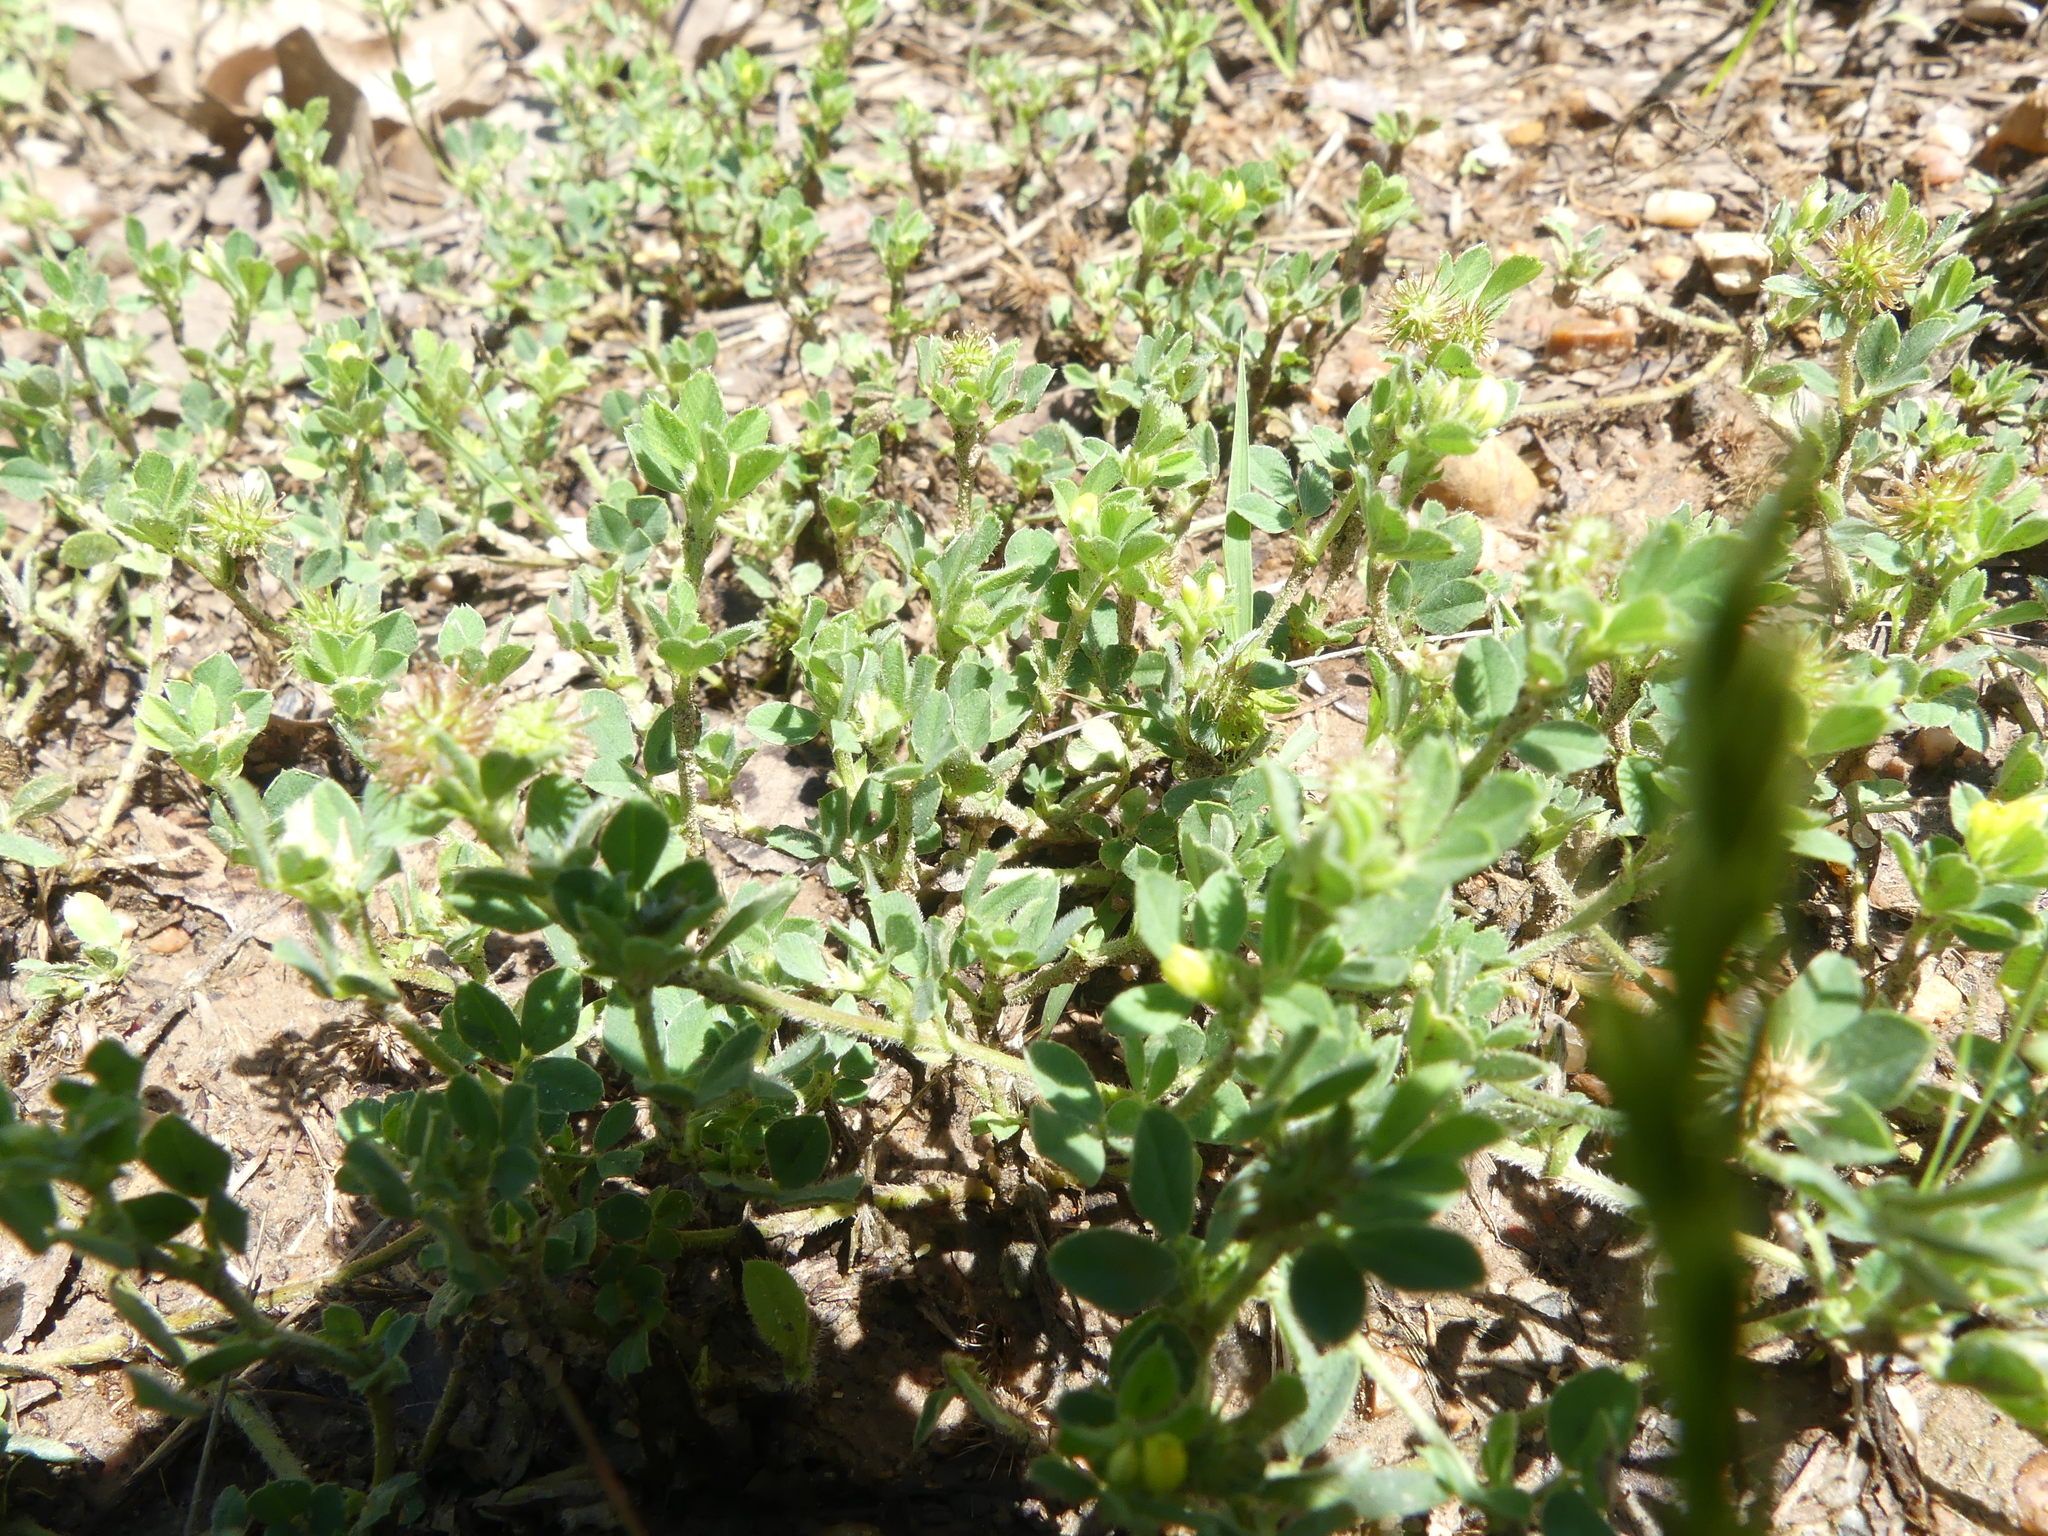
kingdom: Plantae
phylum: Tracheophyta
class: Magnoliopsida
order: Fabales
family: Fabaceae
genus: Medicago
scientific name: Medicago minima
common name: Little bur-clover
